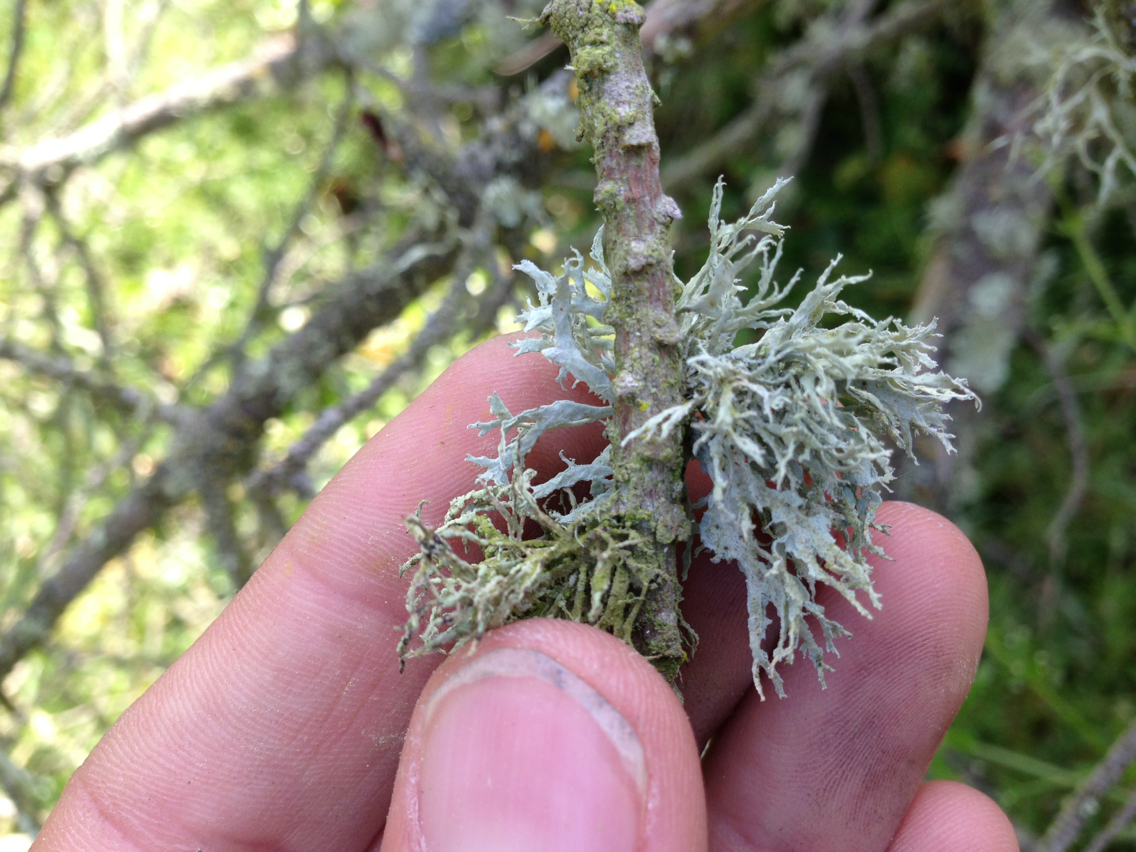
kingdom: Fungi
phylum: Ascomycota
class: Lecanoromycetes
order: Lecanorales
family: Parmeliaceae
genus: Evernia
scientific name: Evernia prunastri
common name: Oak moss
